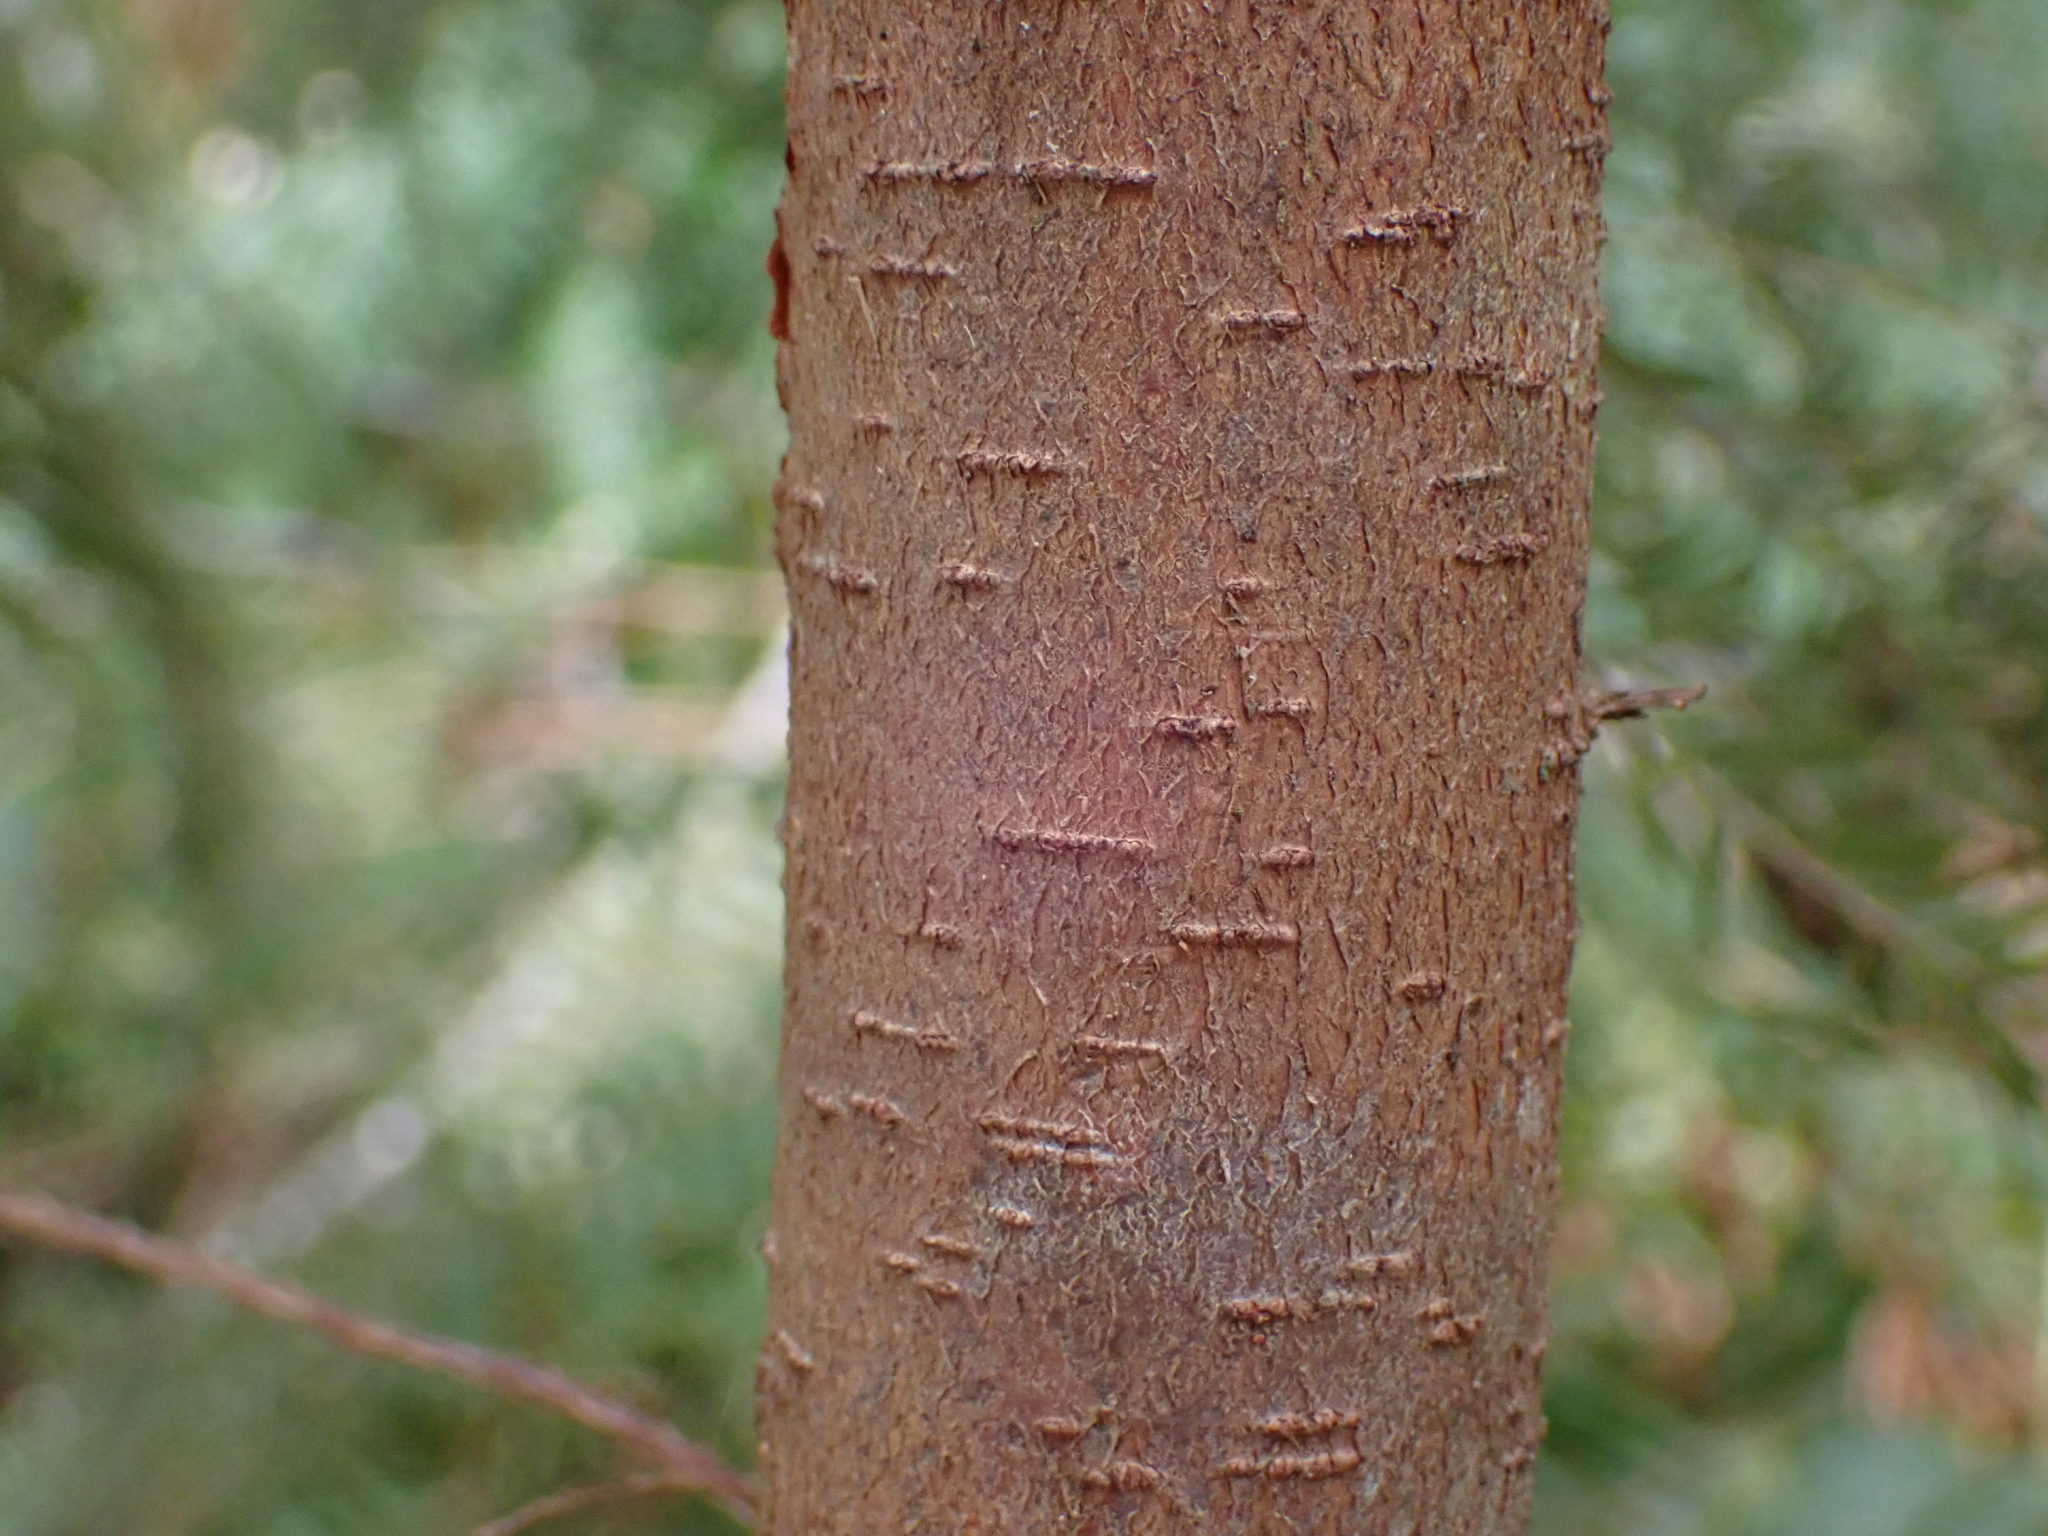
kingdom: Plantae
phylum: Tracheophyta
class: Pinopsida
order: Pinales
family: Pinaceae
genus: Tsuga
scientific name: Tsuga heterophylla
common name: Western hemlock
